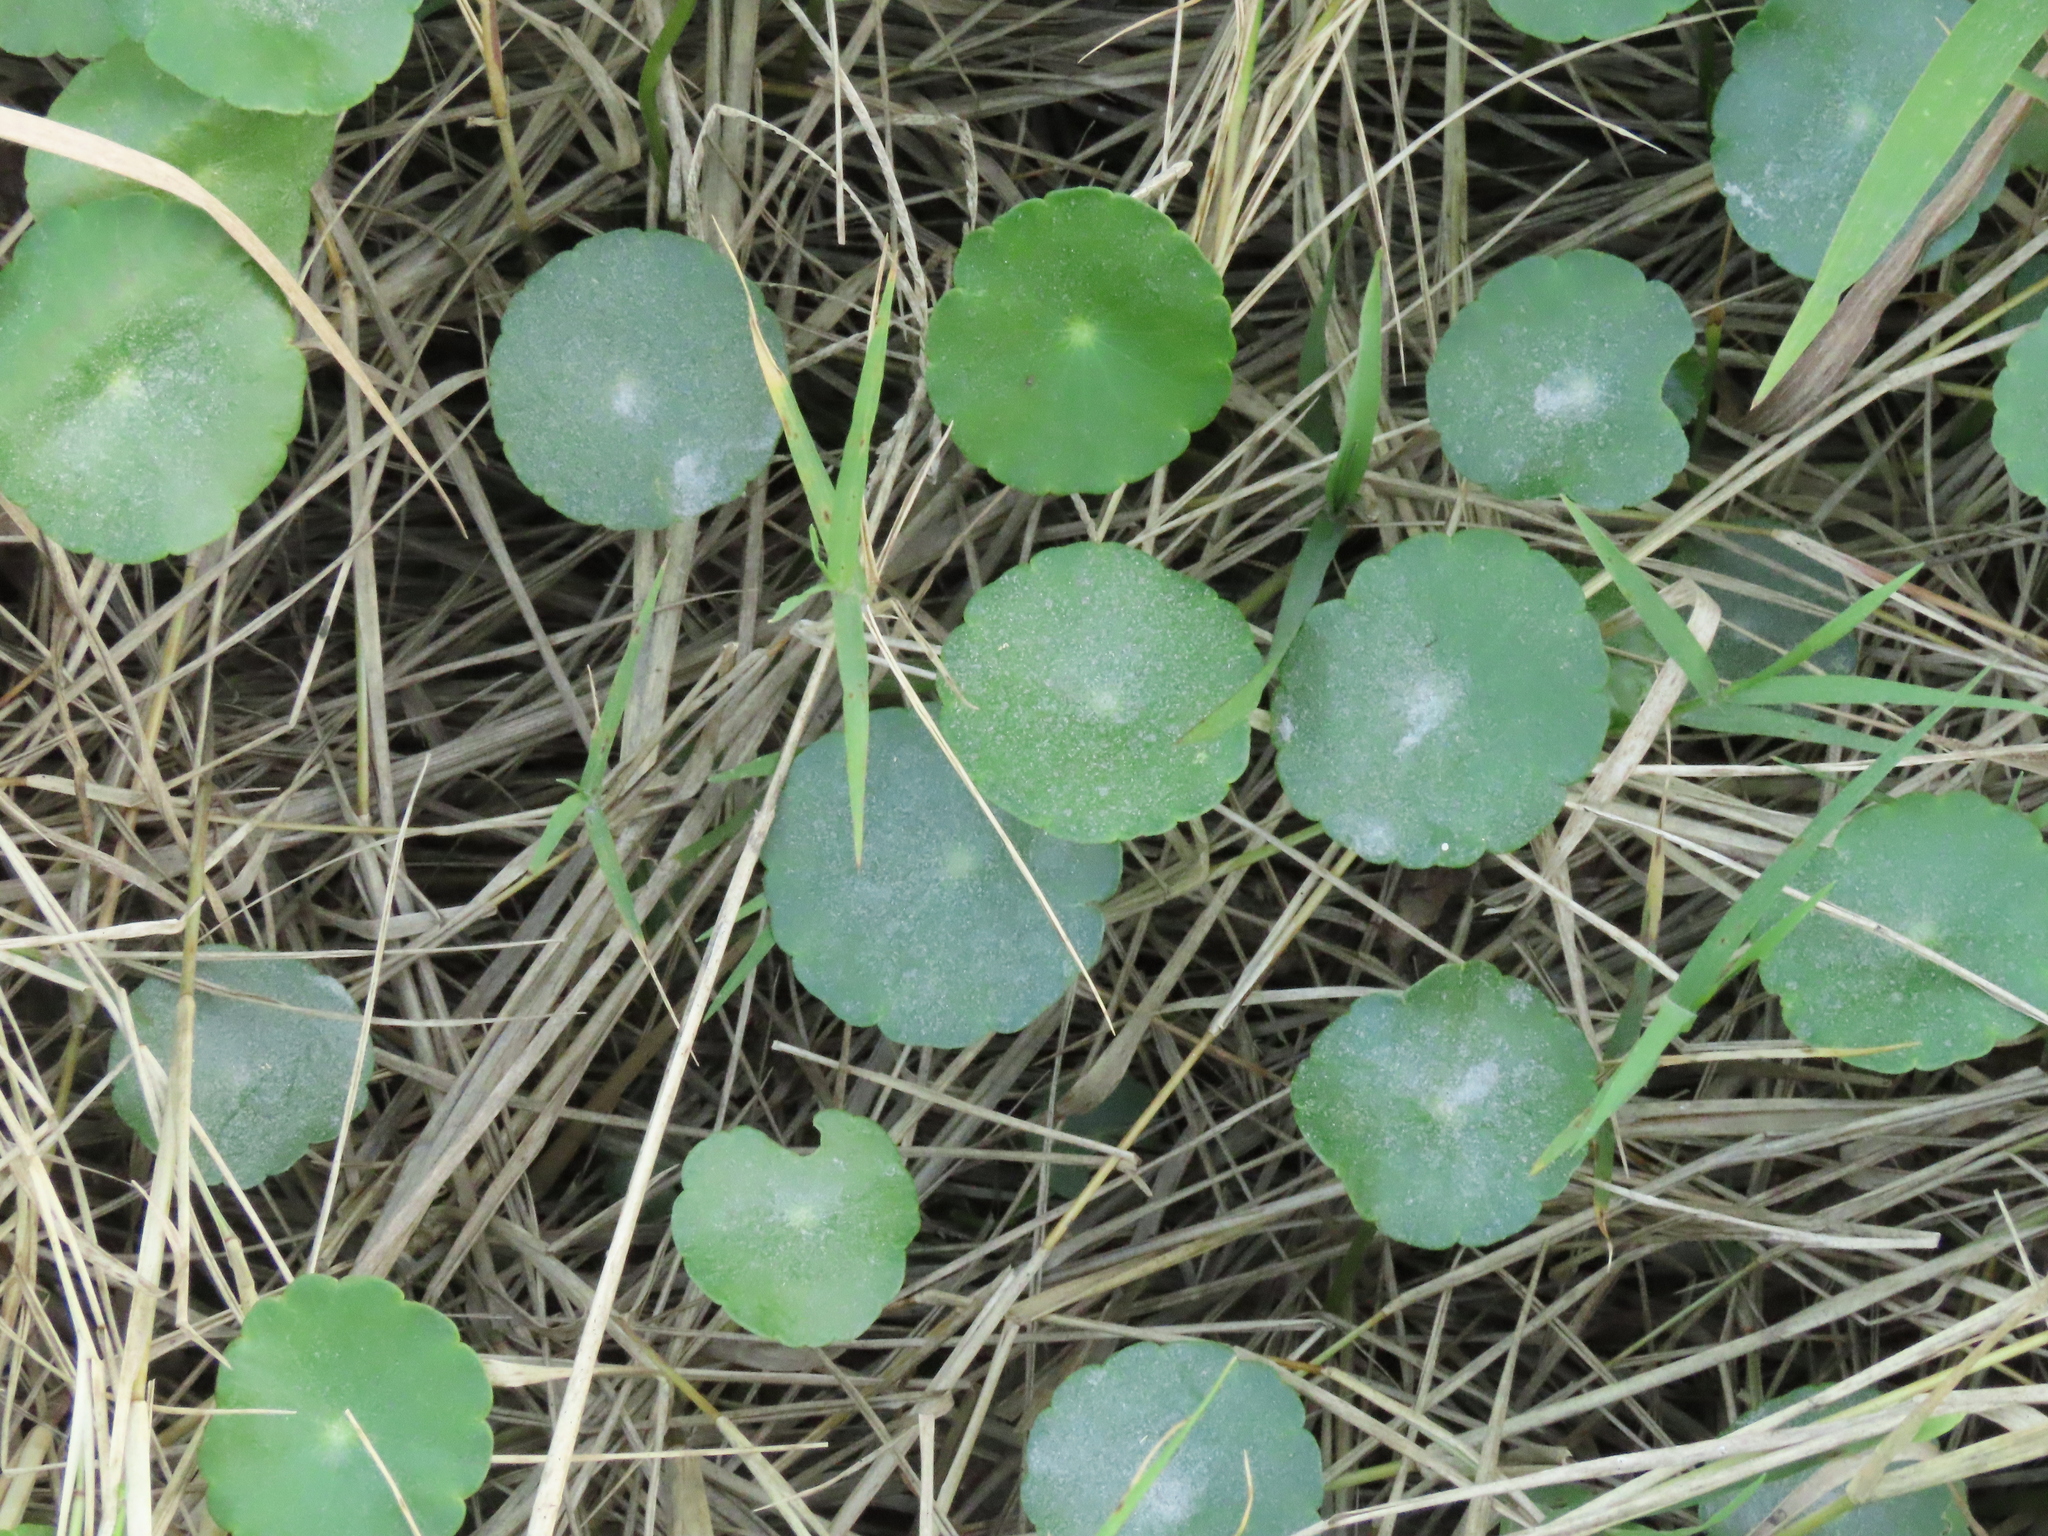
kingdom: Plantae
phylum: Tracheophyta
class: Magnoliopsida
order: Apiales
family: Araliaceae
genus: Hydrocotyle
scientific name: Hydrocotyle verticillata
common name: Whorled marshpennywort
